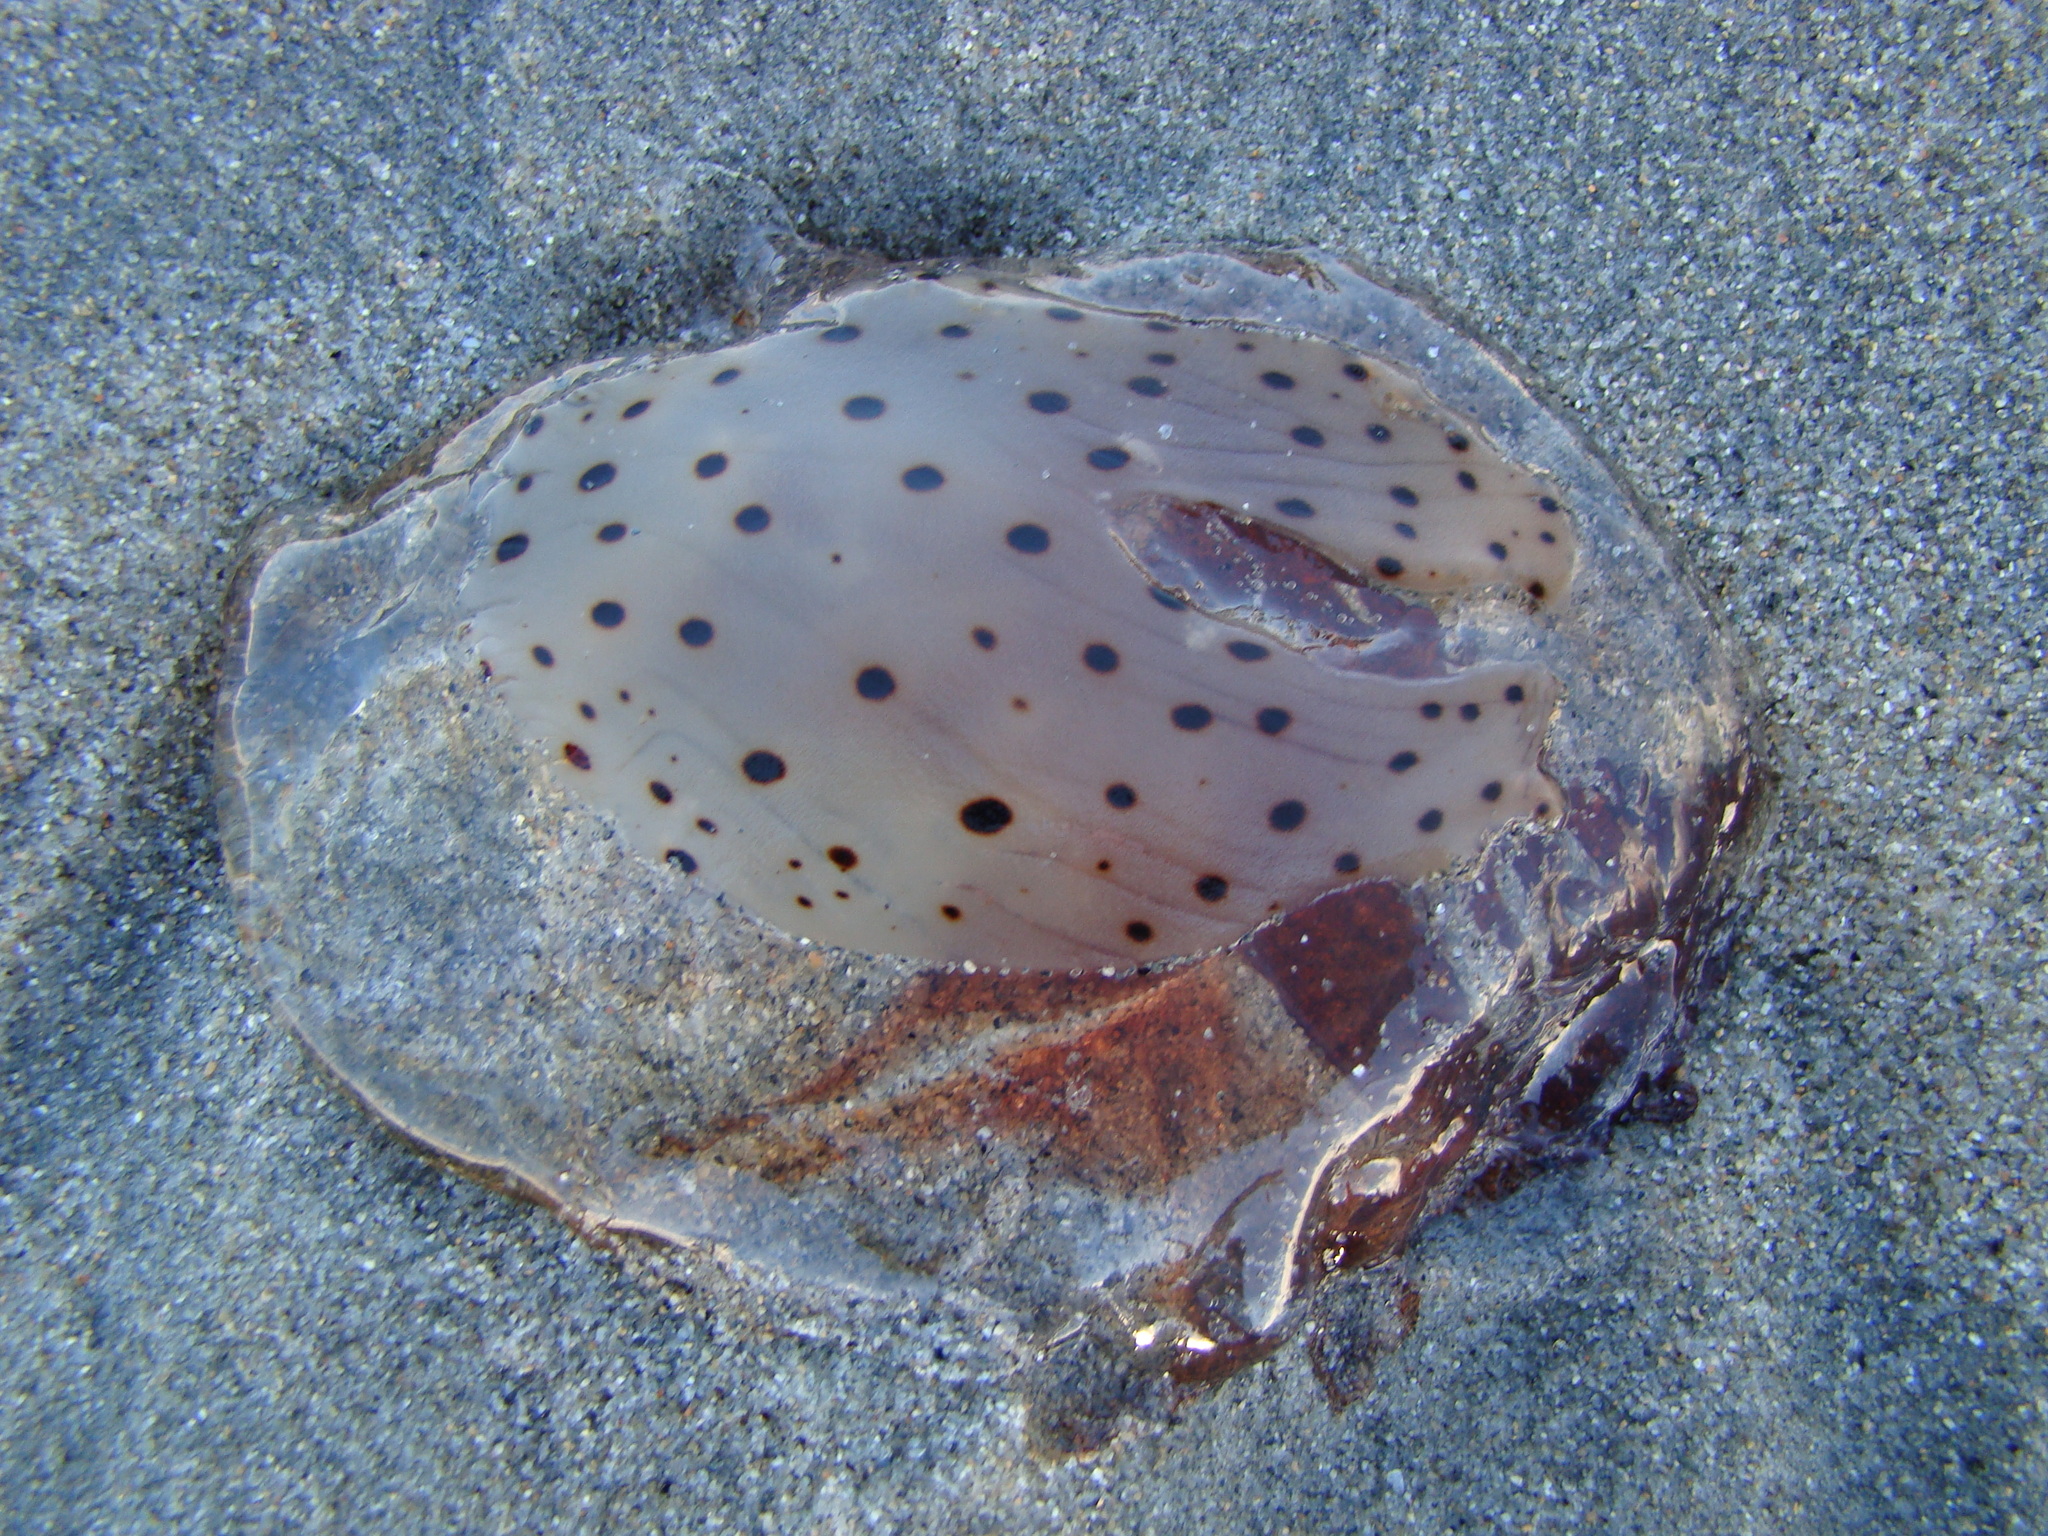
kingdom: Animalia
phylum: Cnidaria
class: Scyphozoa
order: Semaeostomeae
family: Cyaneidae
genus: Desmonema
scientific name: Desmonema gaudichaudi
